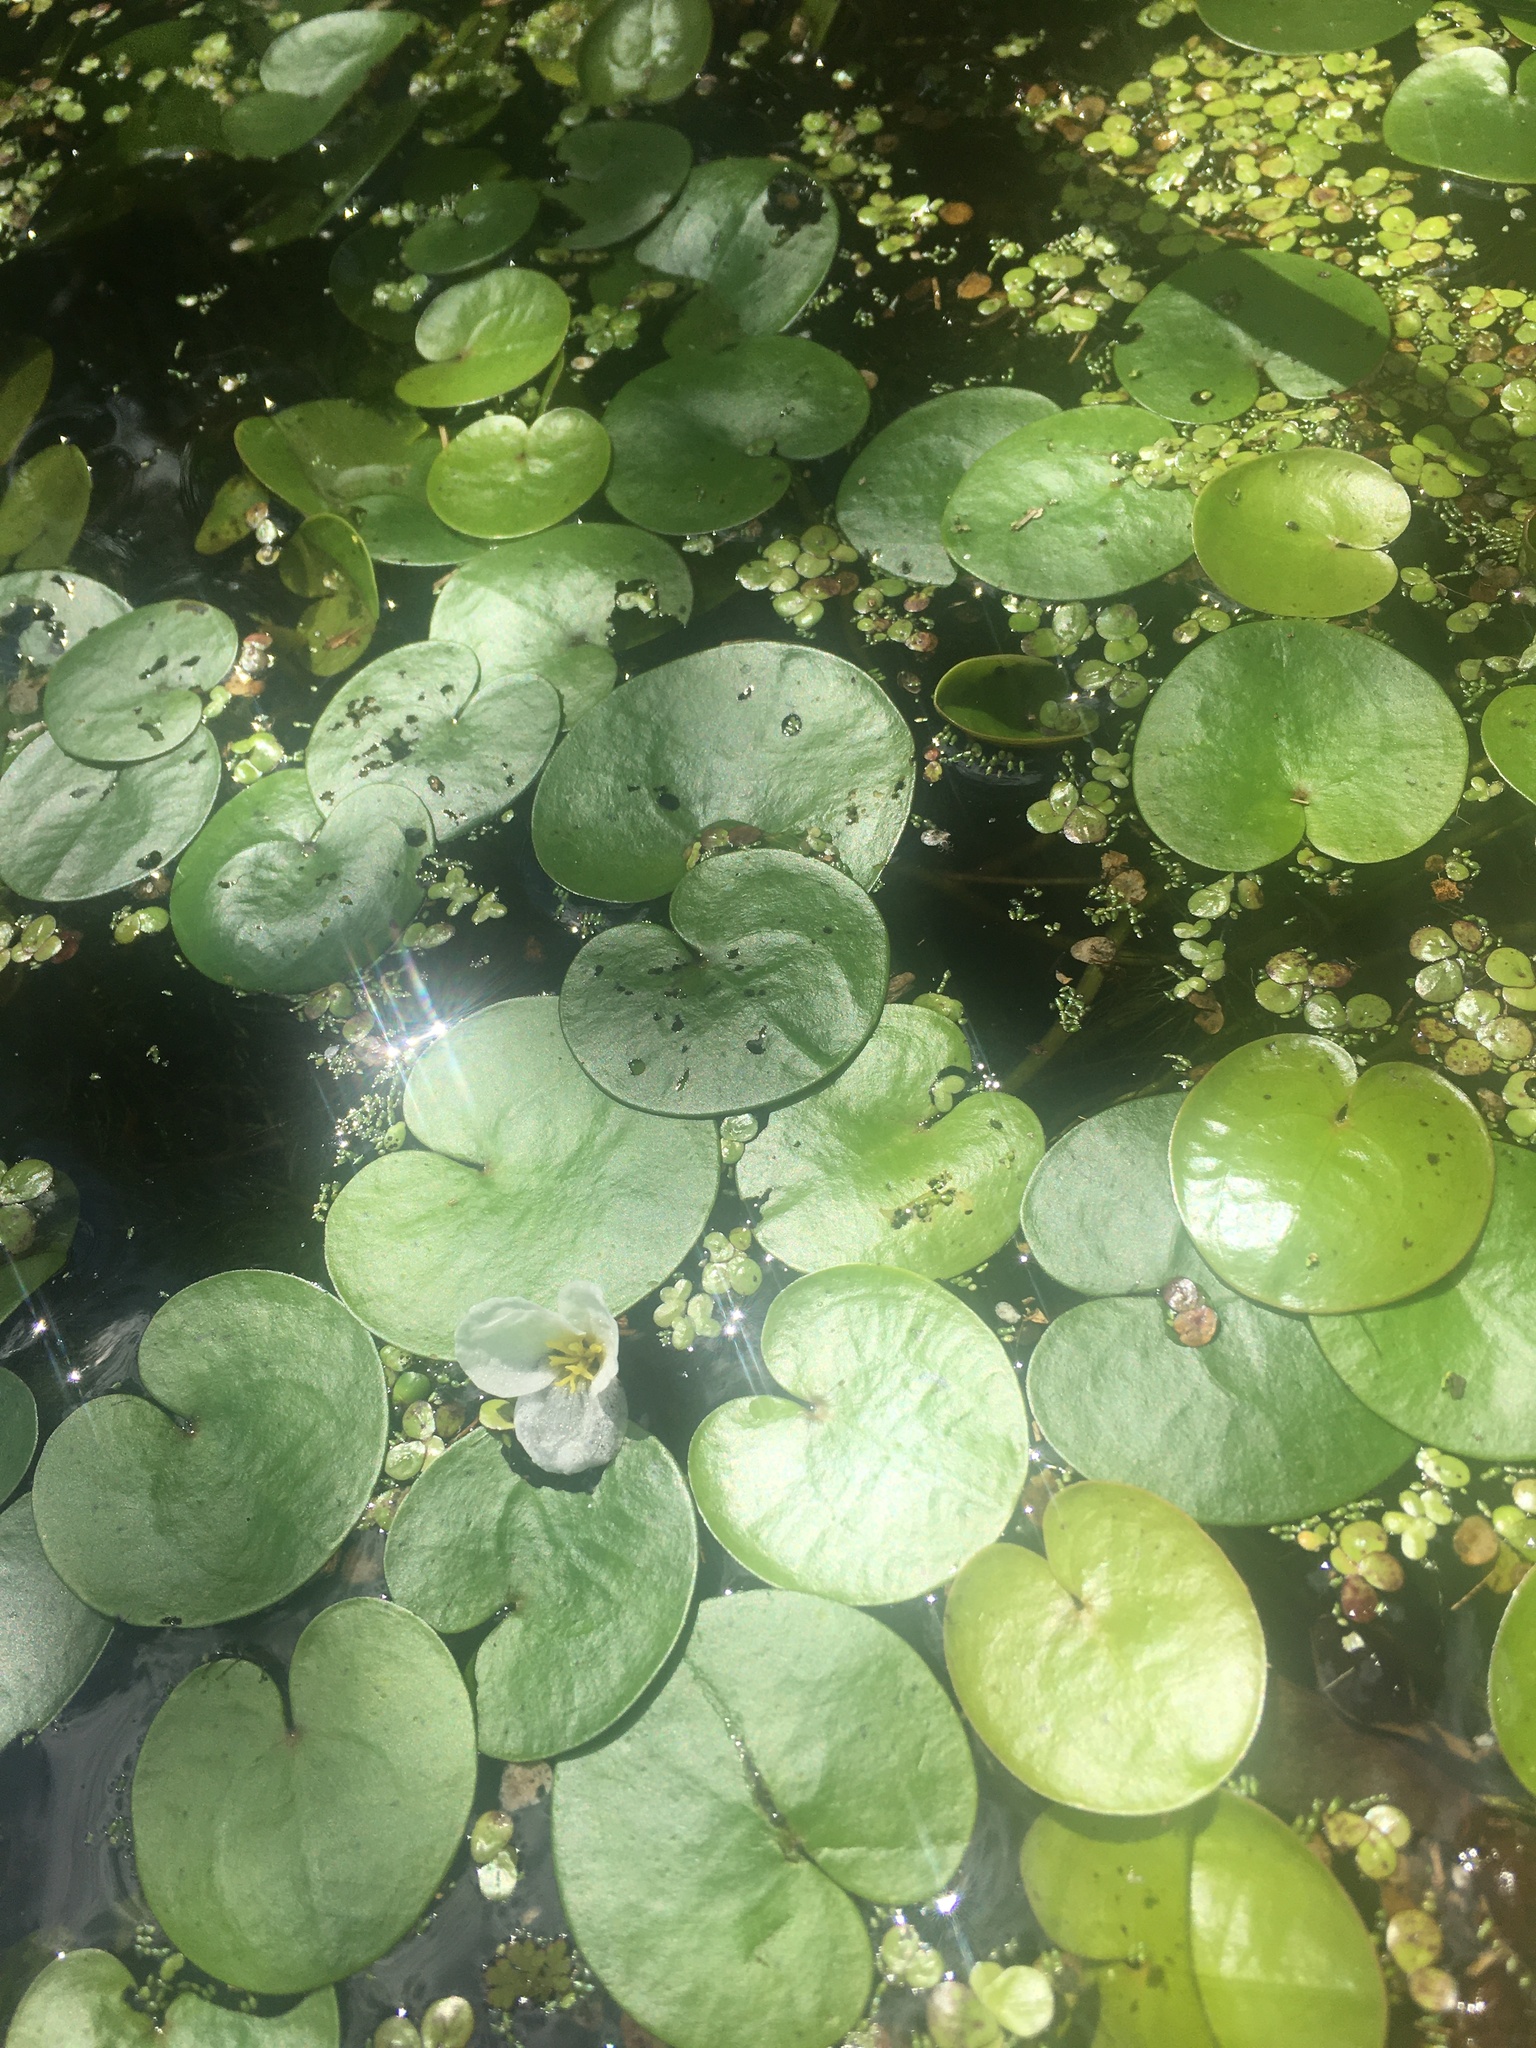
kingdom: Plantae
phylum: Tracheophyta
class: Liliopsida
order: Alismatales
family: Hydrocharitaceae
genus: Hydrocharis
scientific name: Hydrocharis morsus-ranae
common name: Frogbit
